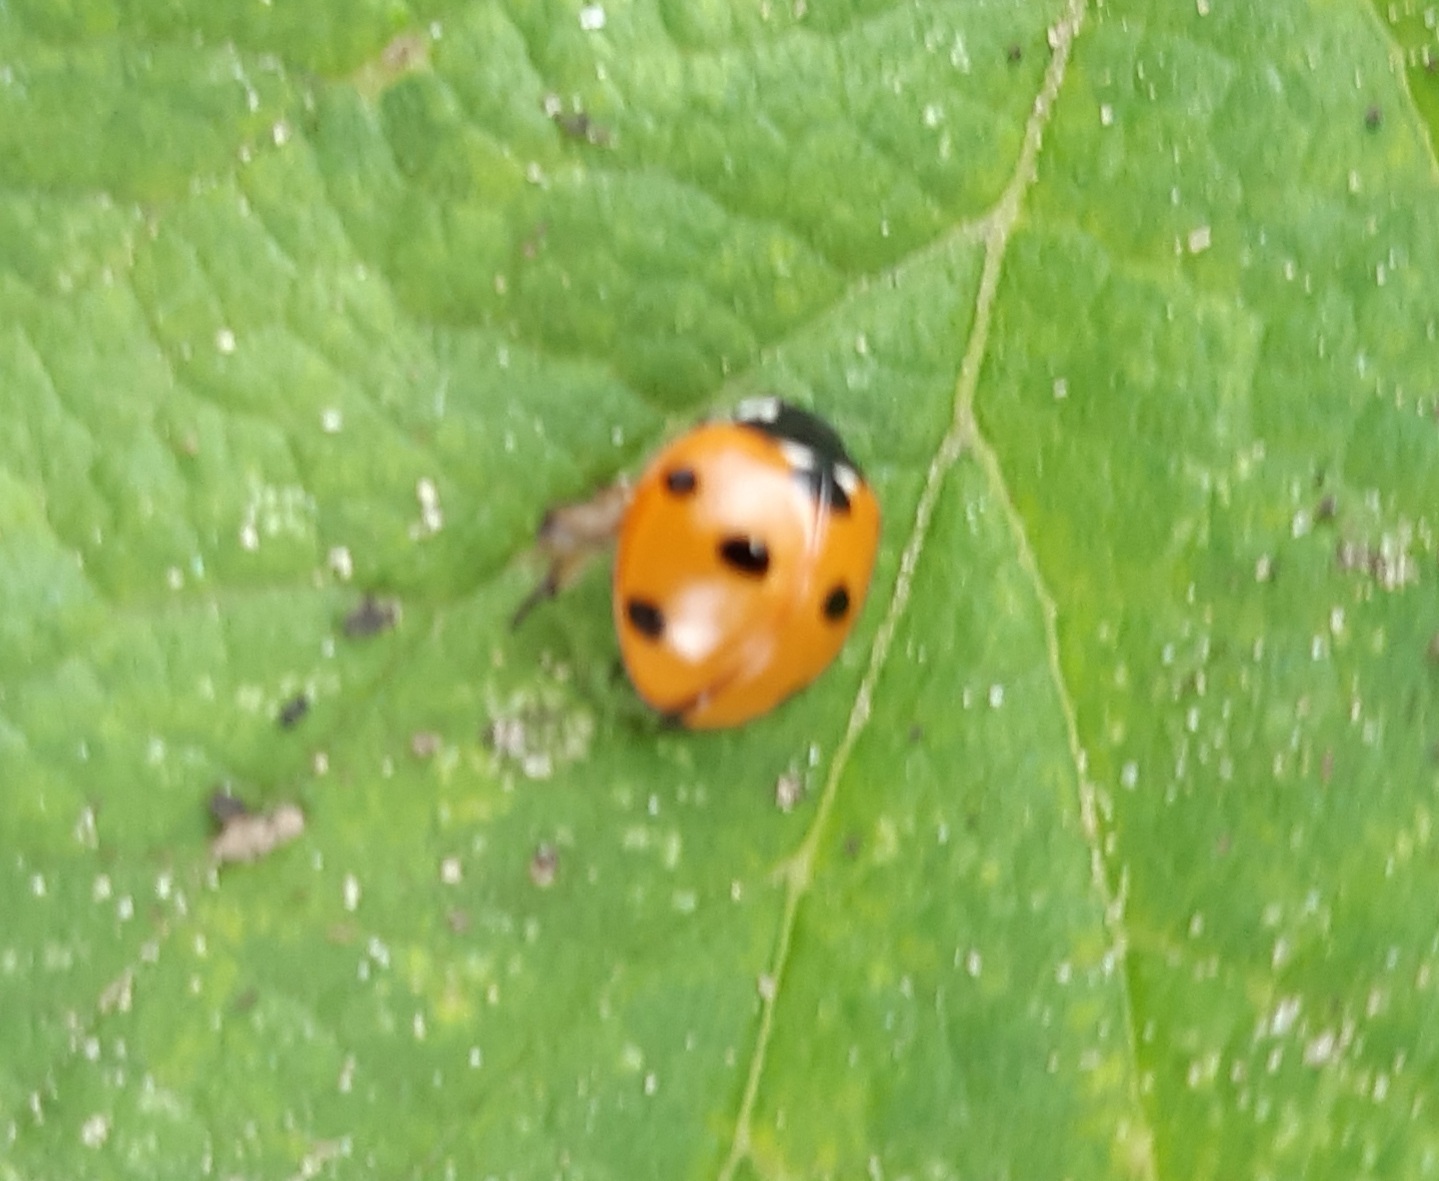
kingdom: Animalia
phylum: Arthropoda
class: Insecta
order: Coleoptera
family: Coccinellidae
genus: Coccinella
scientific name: Coccinella septempunctata
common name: Sevenspotted lady beetle
